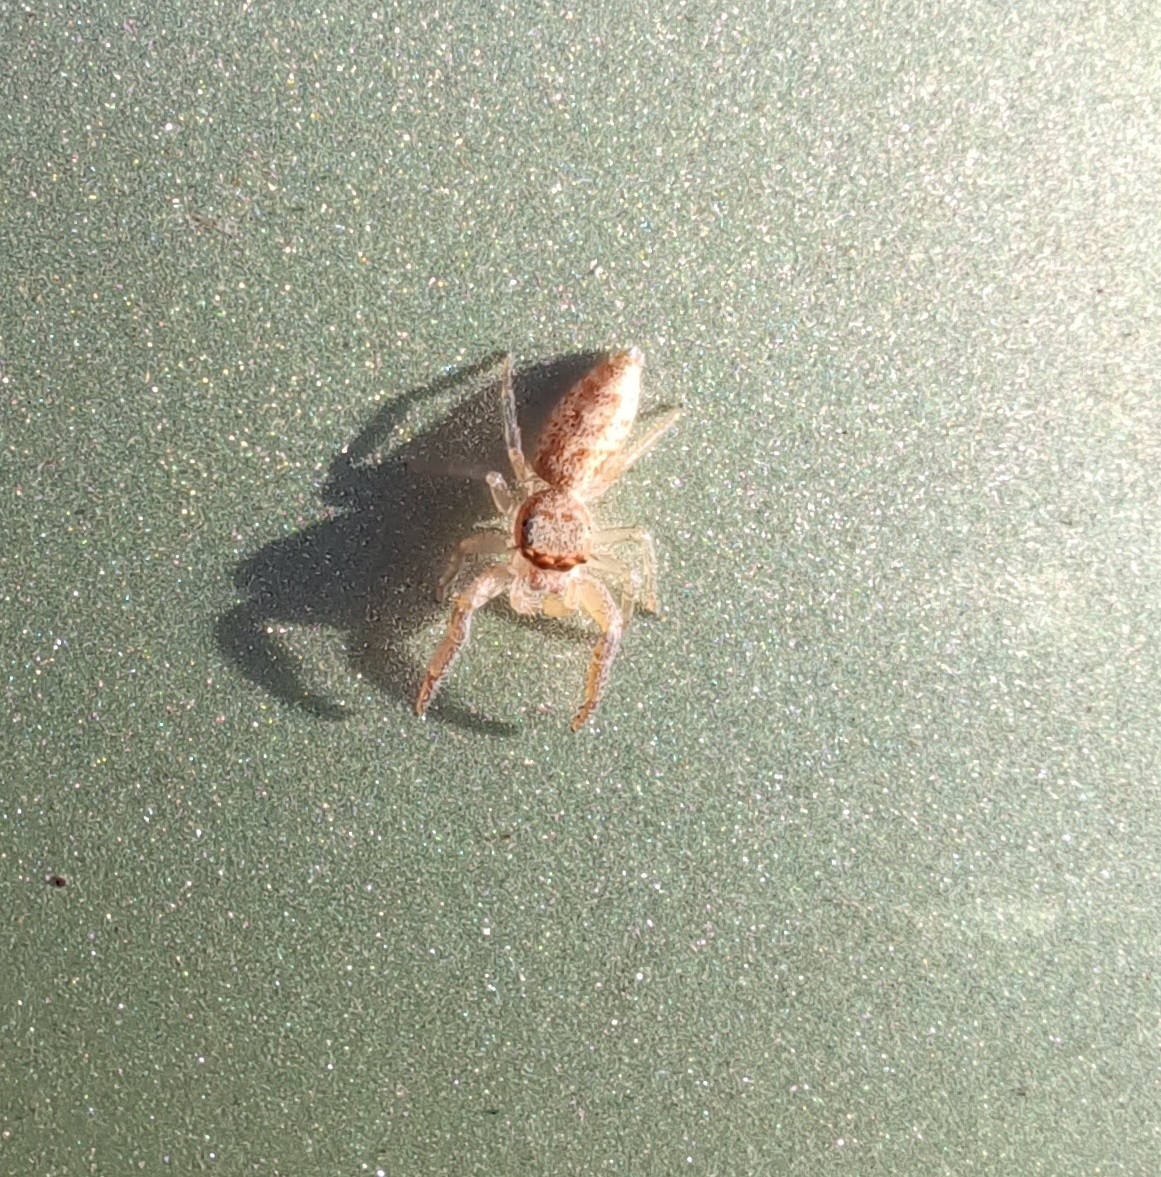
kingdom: Animalia
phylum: Arthropoda
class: Arachnida
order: Araneae
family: Salticidae
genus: Hentzia
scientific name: Hentzia mitrata
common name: White-jawed jumping spider
